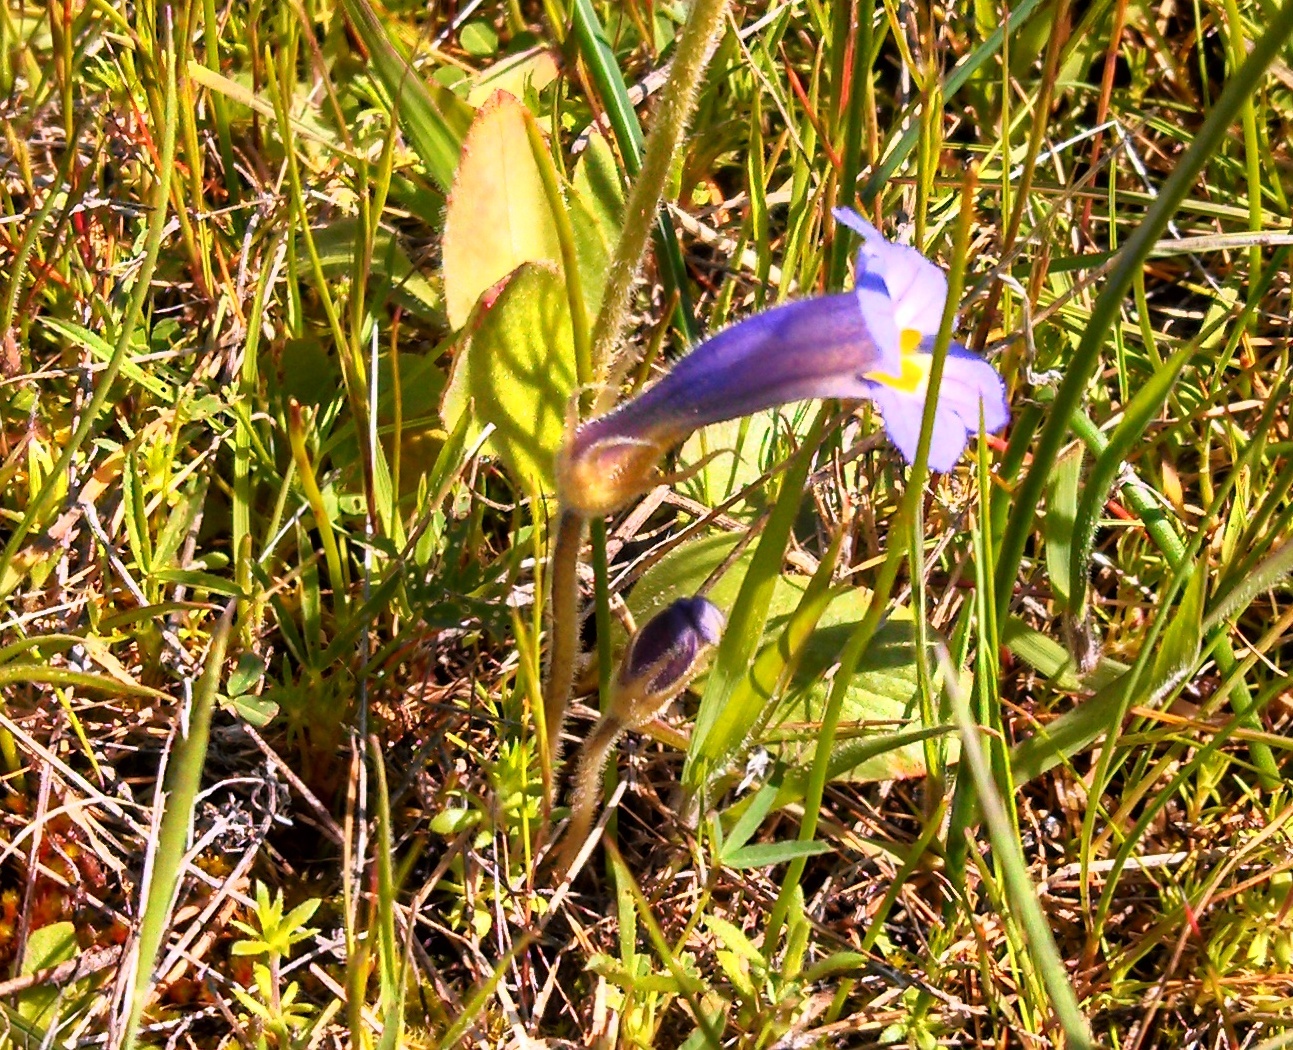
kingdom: Plantae
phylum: Tracheophyta
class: Magnoliopsida
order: Lamiales
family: Orobanchaceae
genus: Aphyllon
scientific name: Aphyllon uniflorum
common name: One-flowered broomrape
